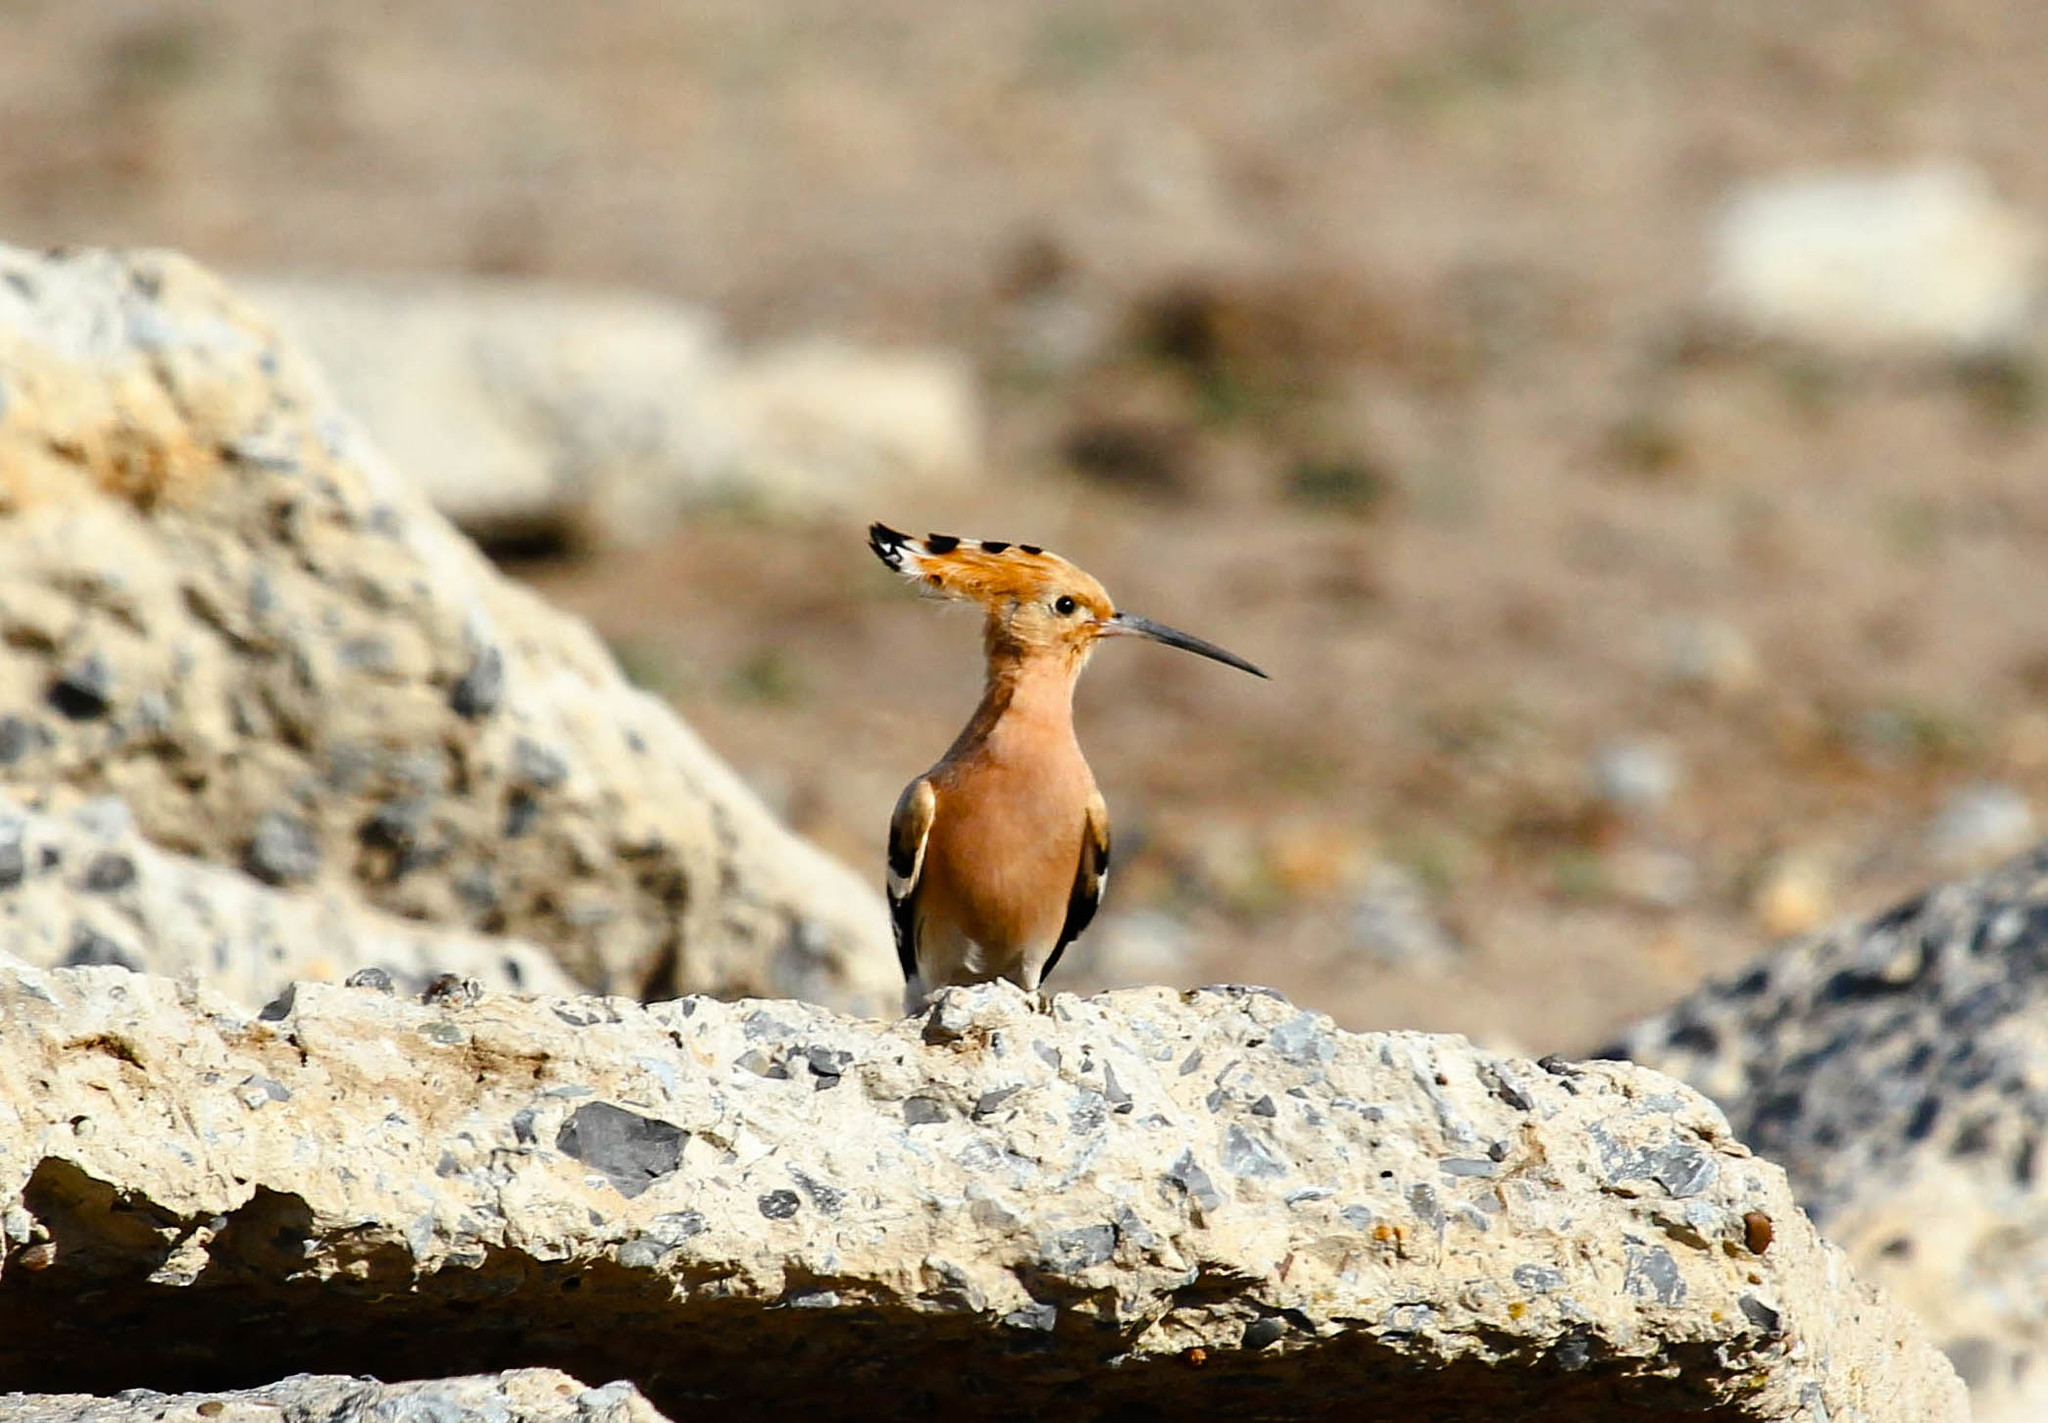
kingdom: Animalia
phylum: Chordata
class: Aves
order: Bucerotiformes
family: Upupidae
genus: Upupa
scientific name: Upupa epops
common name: Eurasian hoopoe
